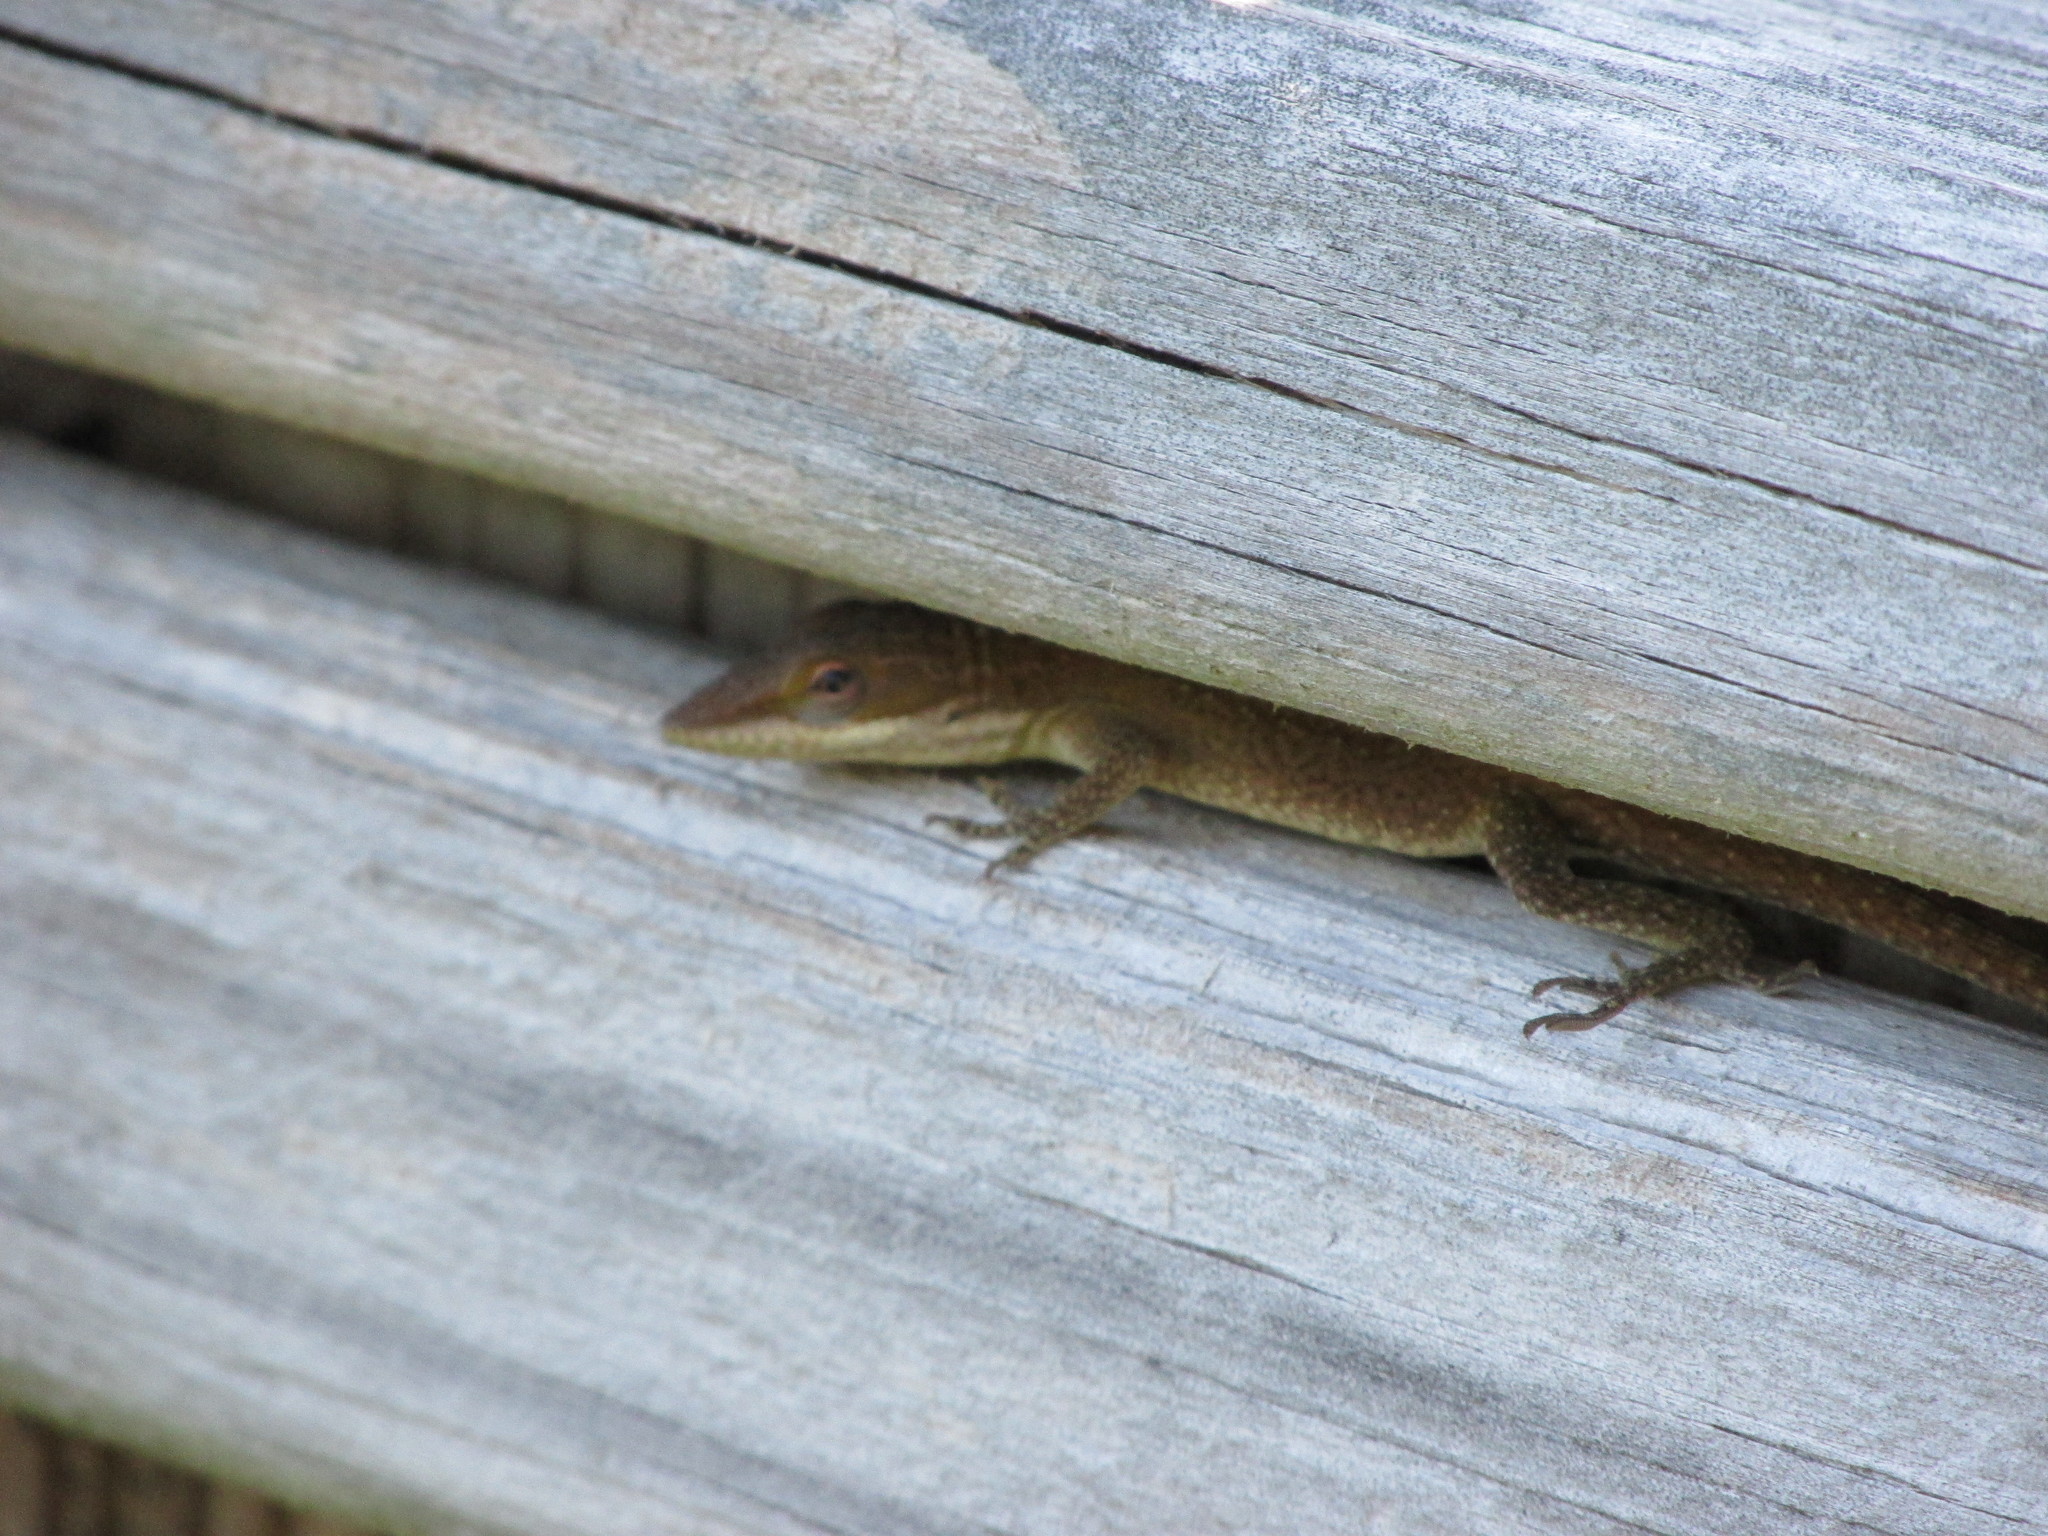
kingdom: Animalia
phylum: Chordata
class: Squamata
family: Dactyloidae
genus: Anolis
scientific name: Anolis carolinensis
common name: Green anole
